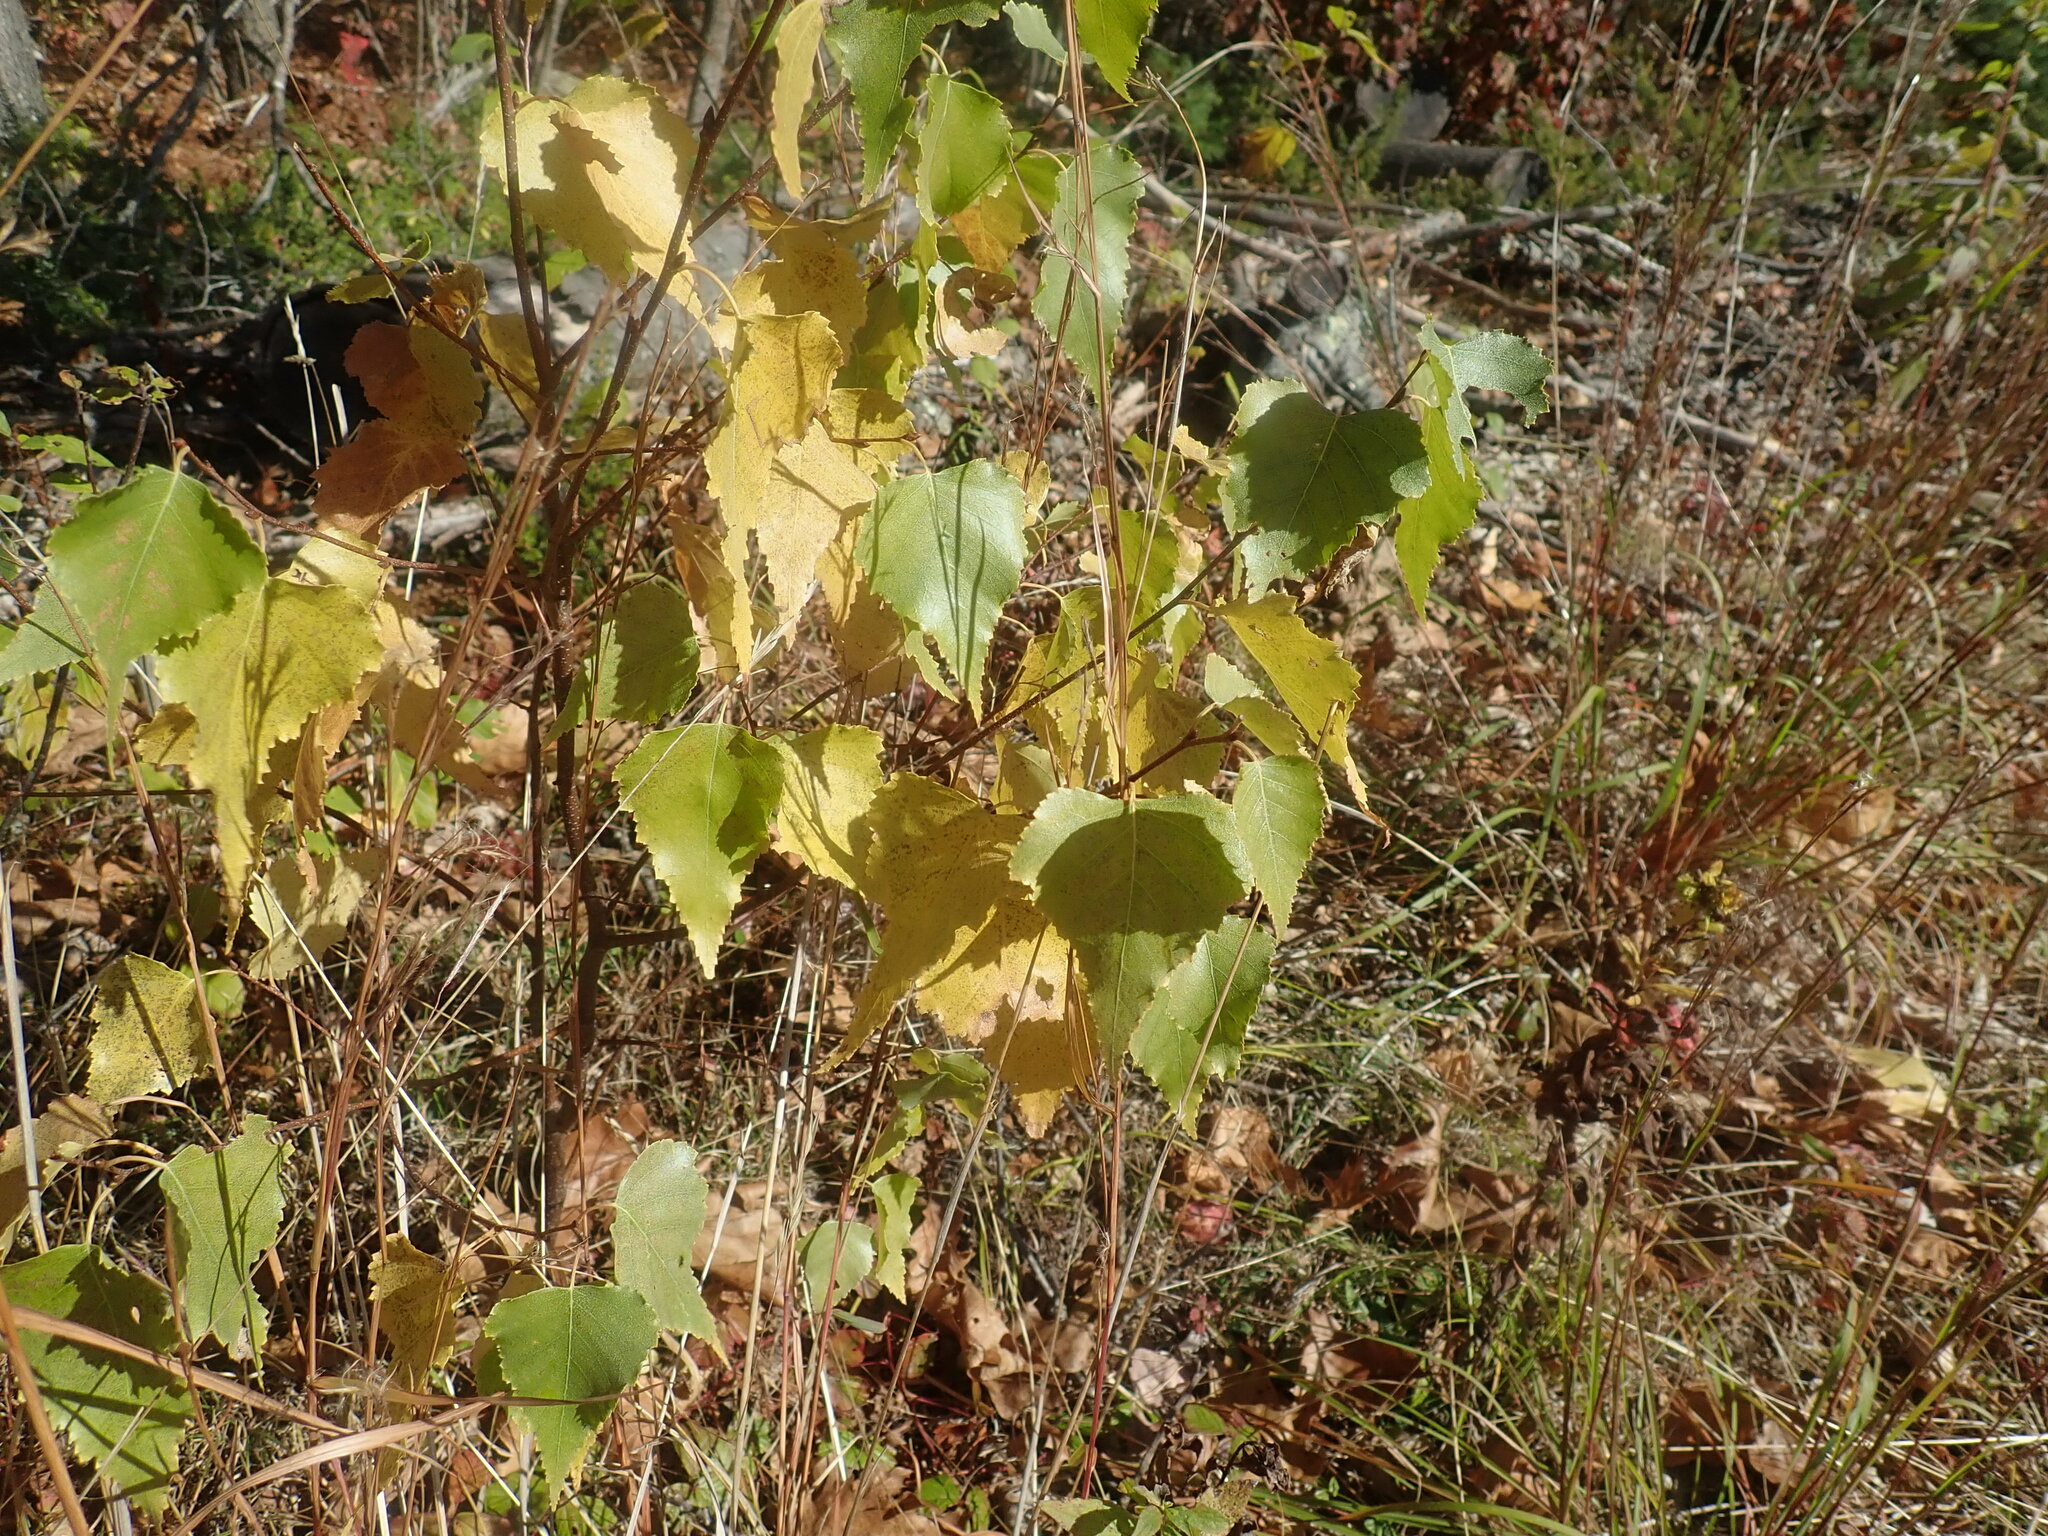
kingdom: Plantae
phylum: Tracheophyta
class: Magnoliopsida
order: Fagales
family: Betulaceae
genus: Betula
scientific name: Betula populifolia
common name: Fire birch
